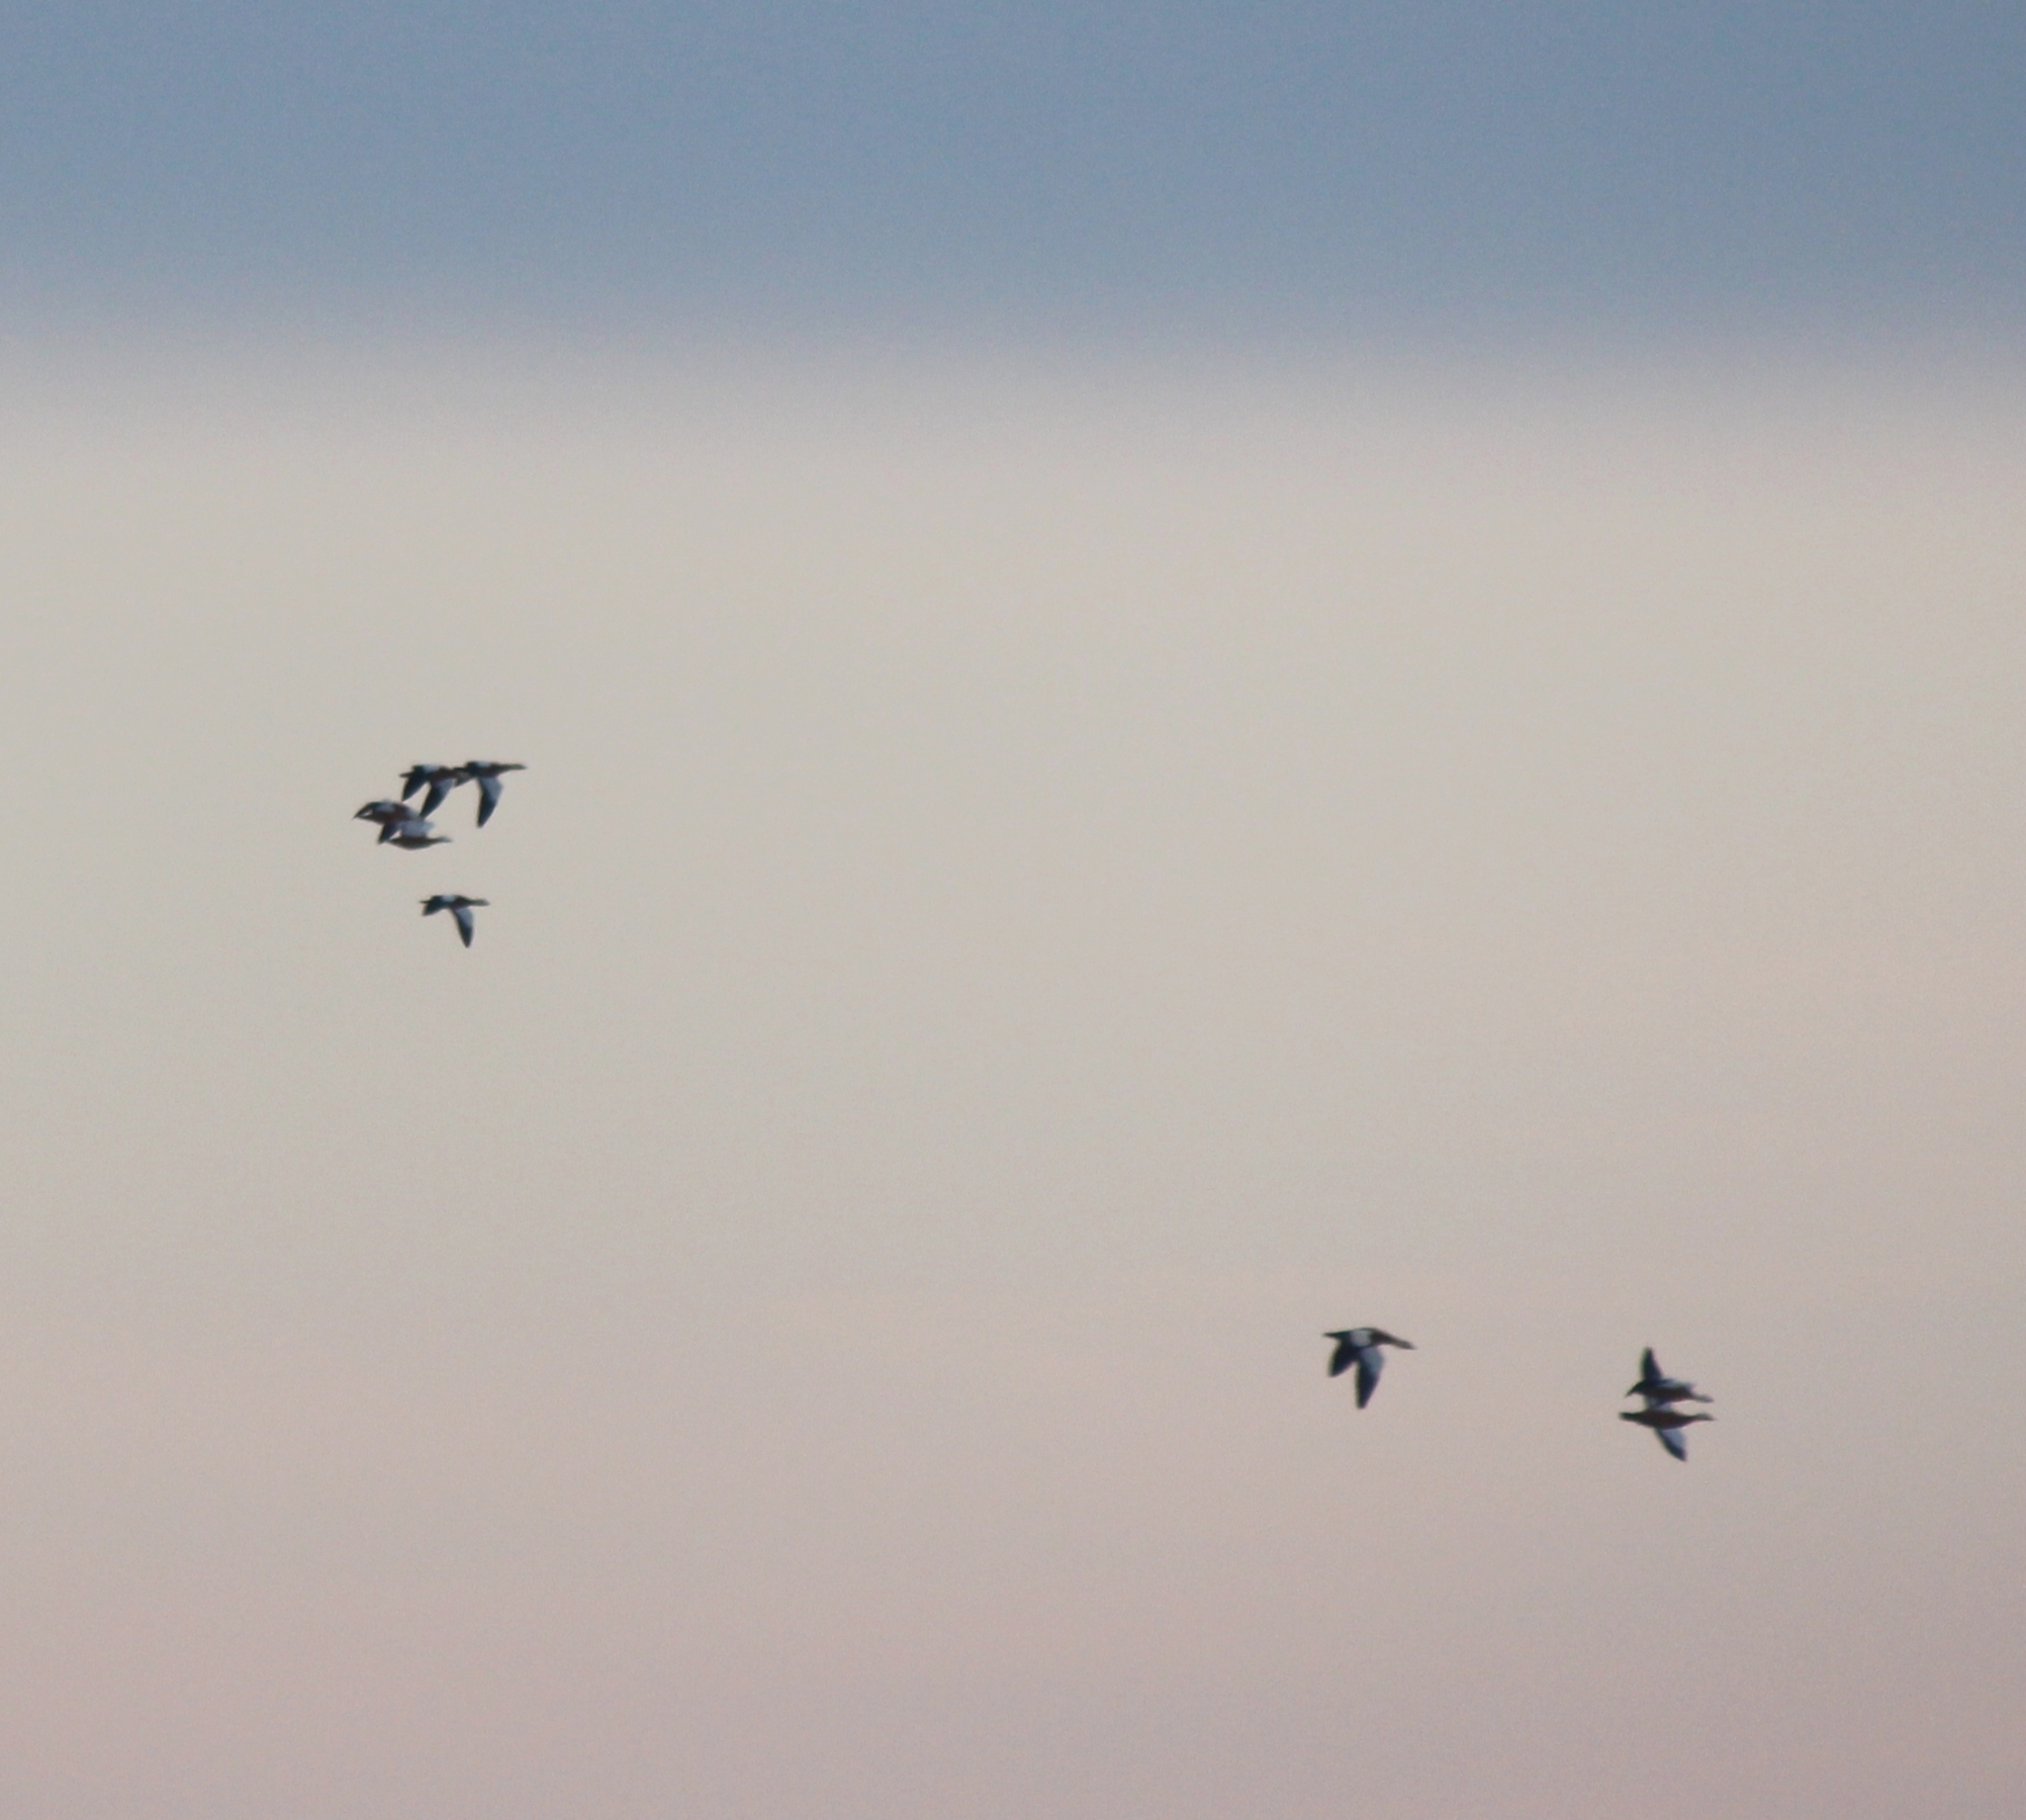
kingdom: Animalia
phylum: Chordata
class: Aves
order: Anseriformes
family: Anatidae
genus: Tadorna
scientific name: Tadorna ferruginea
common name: Ruddy shelduck
